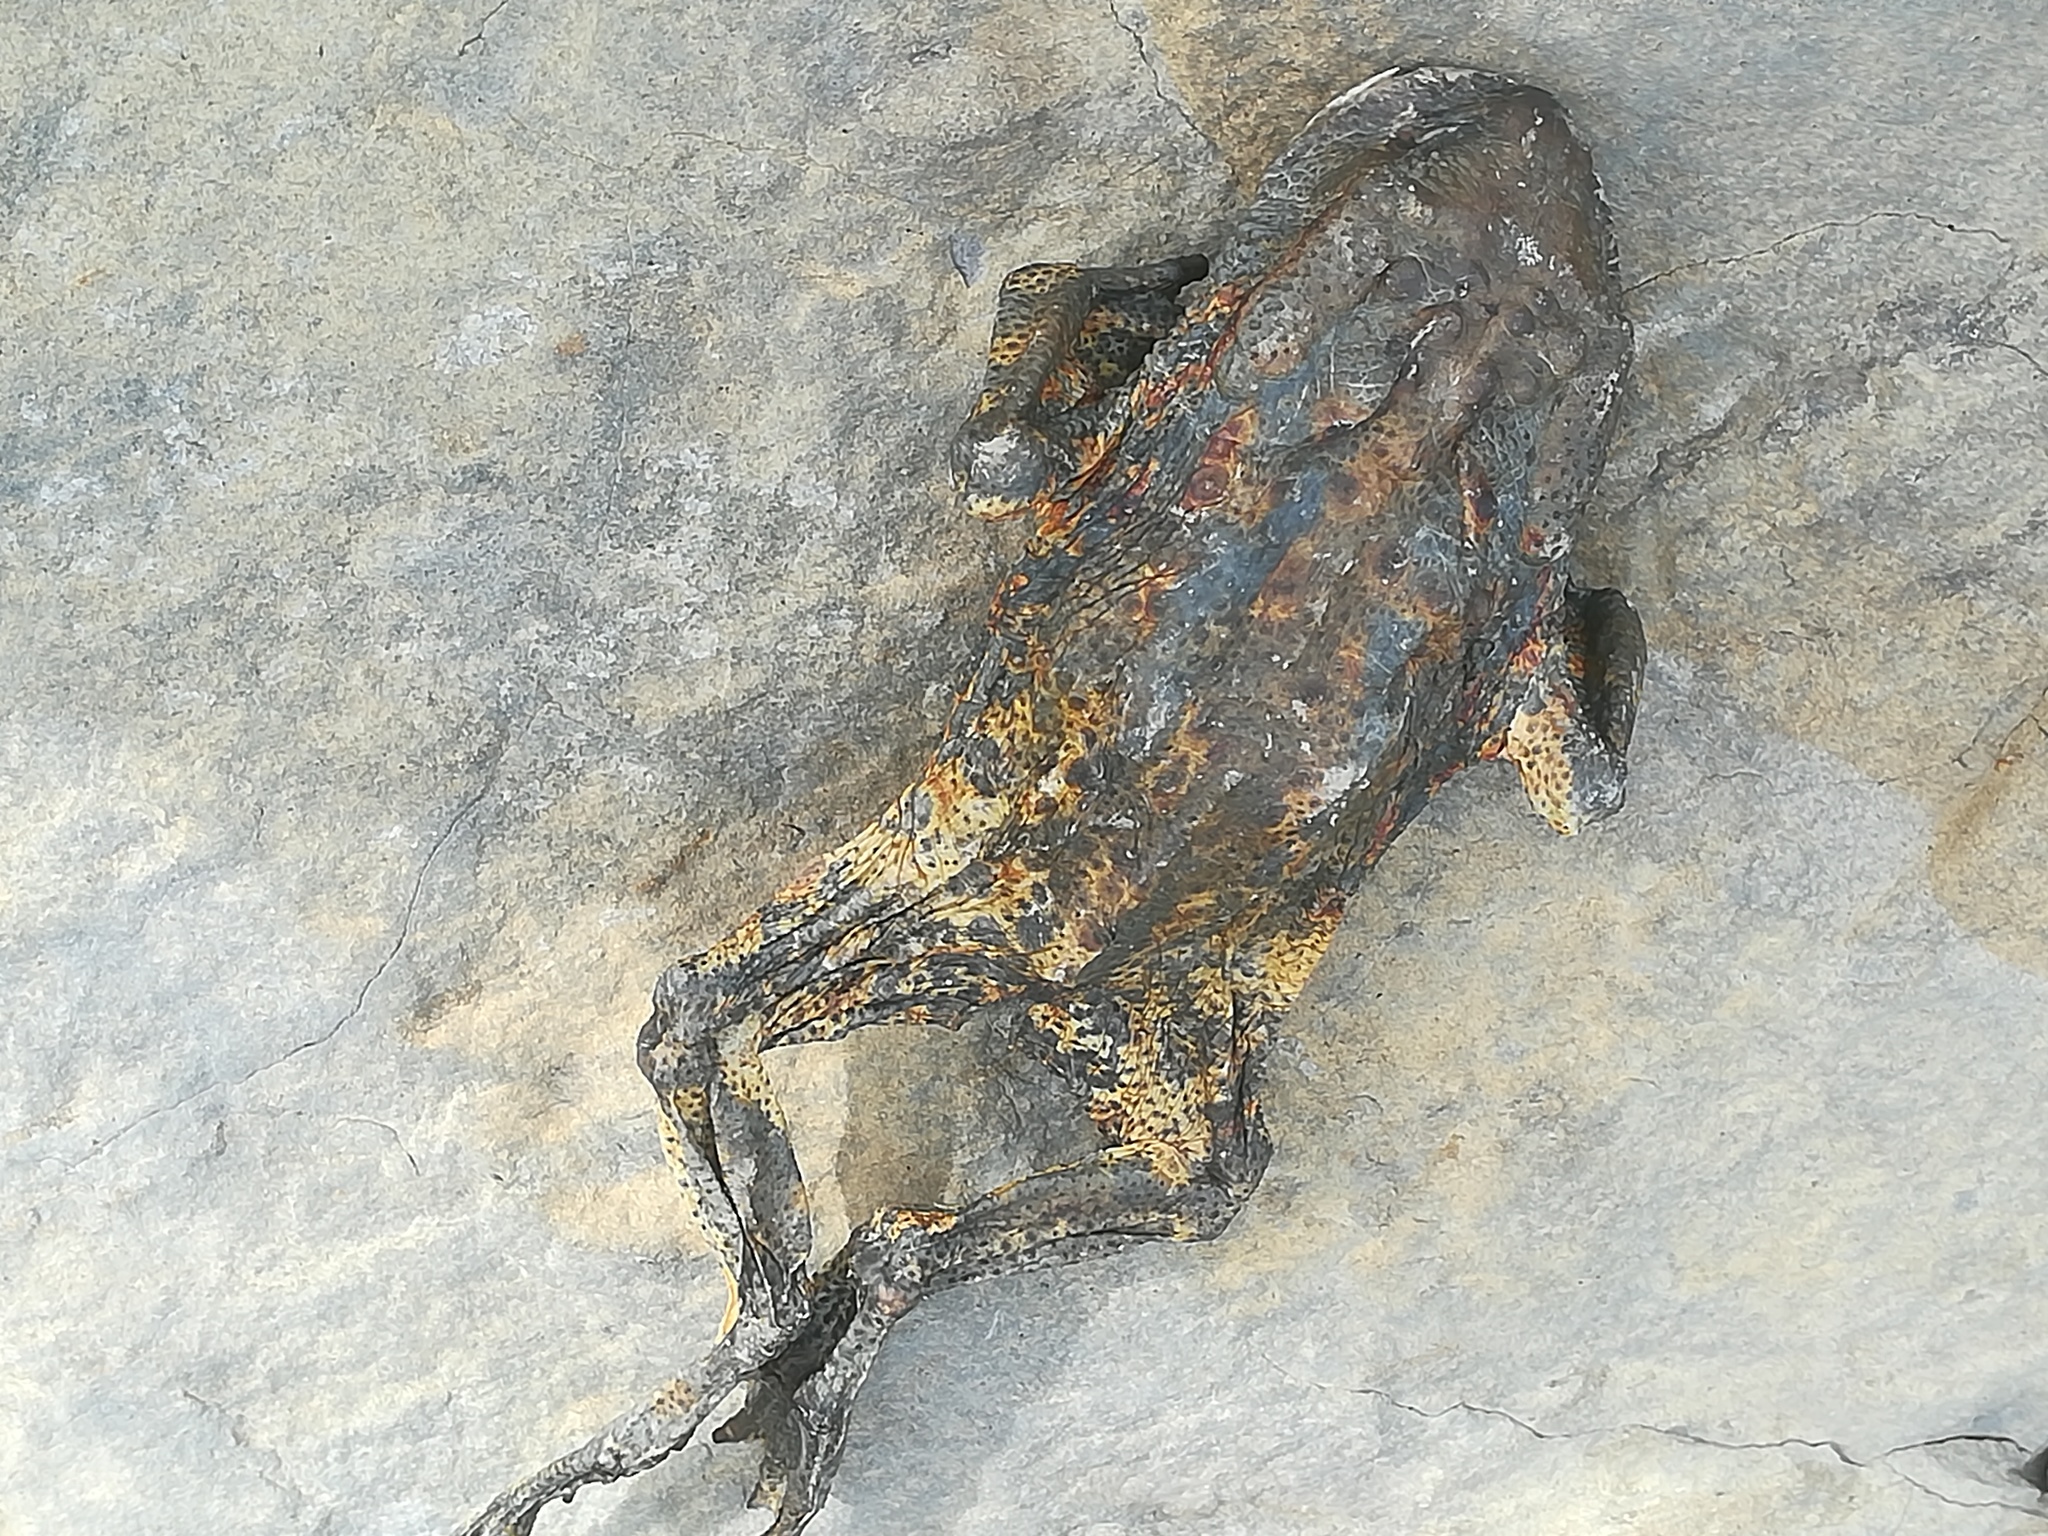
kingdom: Animalia
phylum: Chordata
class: Amphibia
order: Anura
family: Bufonidae
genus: Bufo
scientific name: Bufo bufo
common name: Common toad
